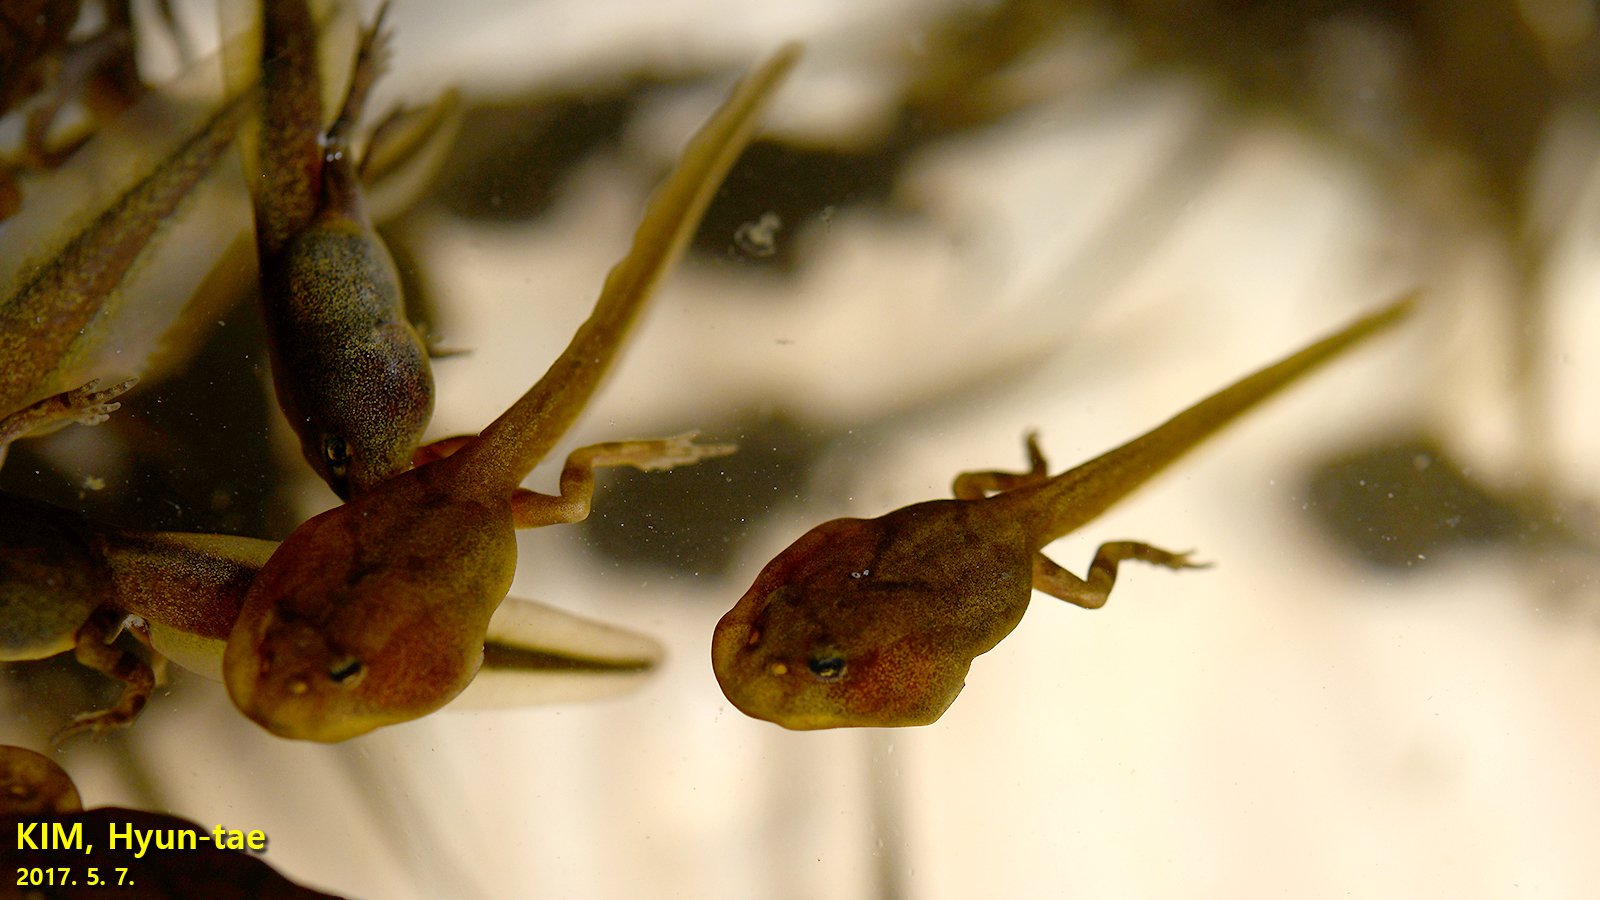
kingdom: Animalia
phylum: Chordata
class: Amphibia
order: Anura
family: Bufonidae
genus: Bufo
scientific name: Bufo gargarizans
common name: Asiatic toad
